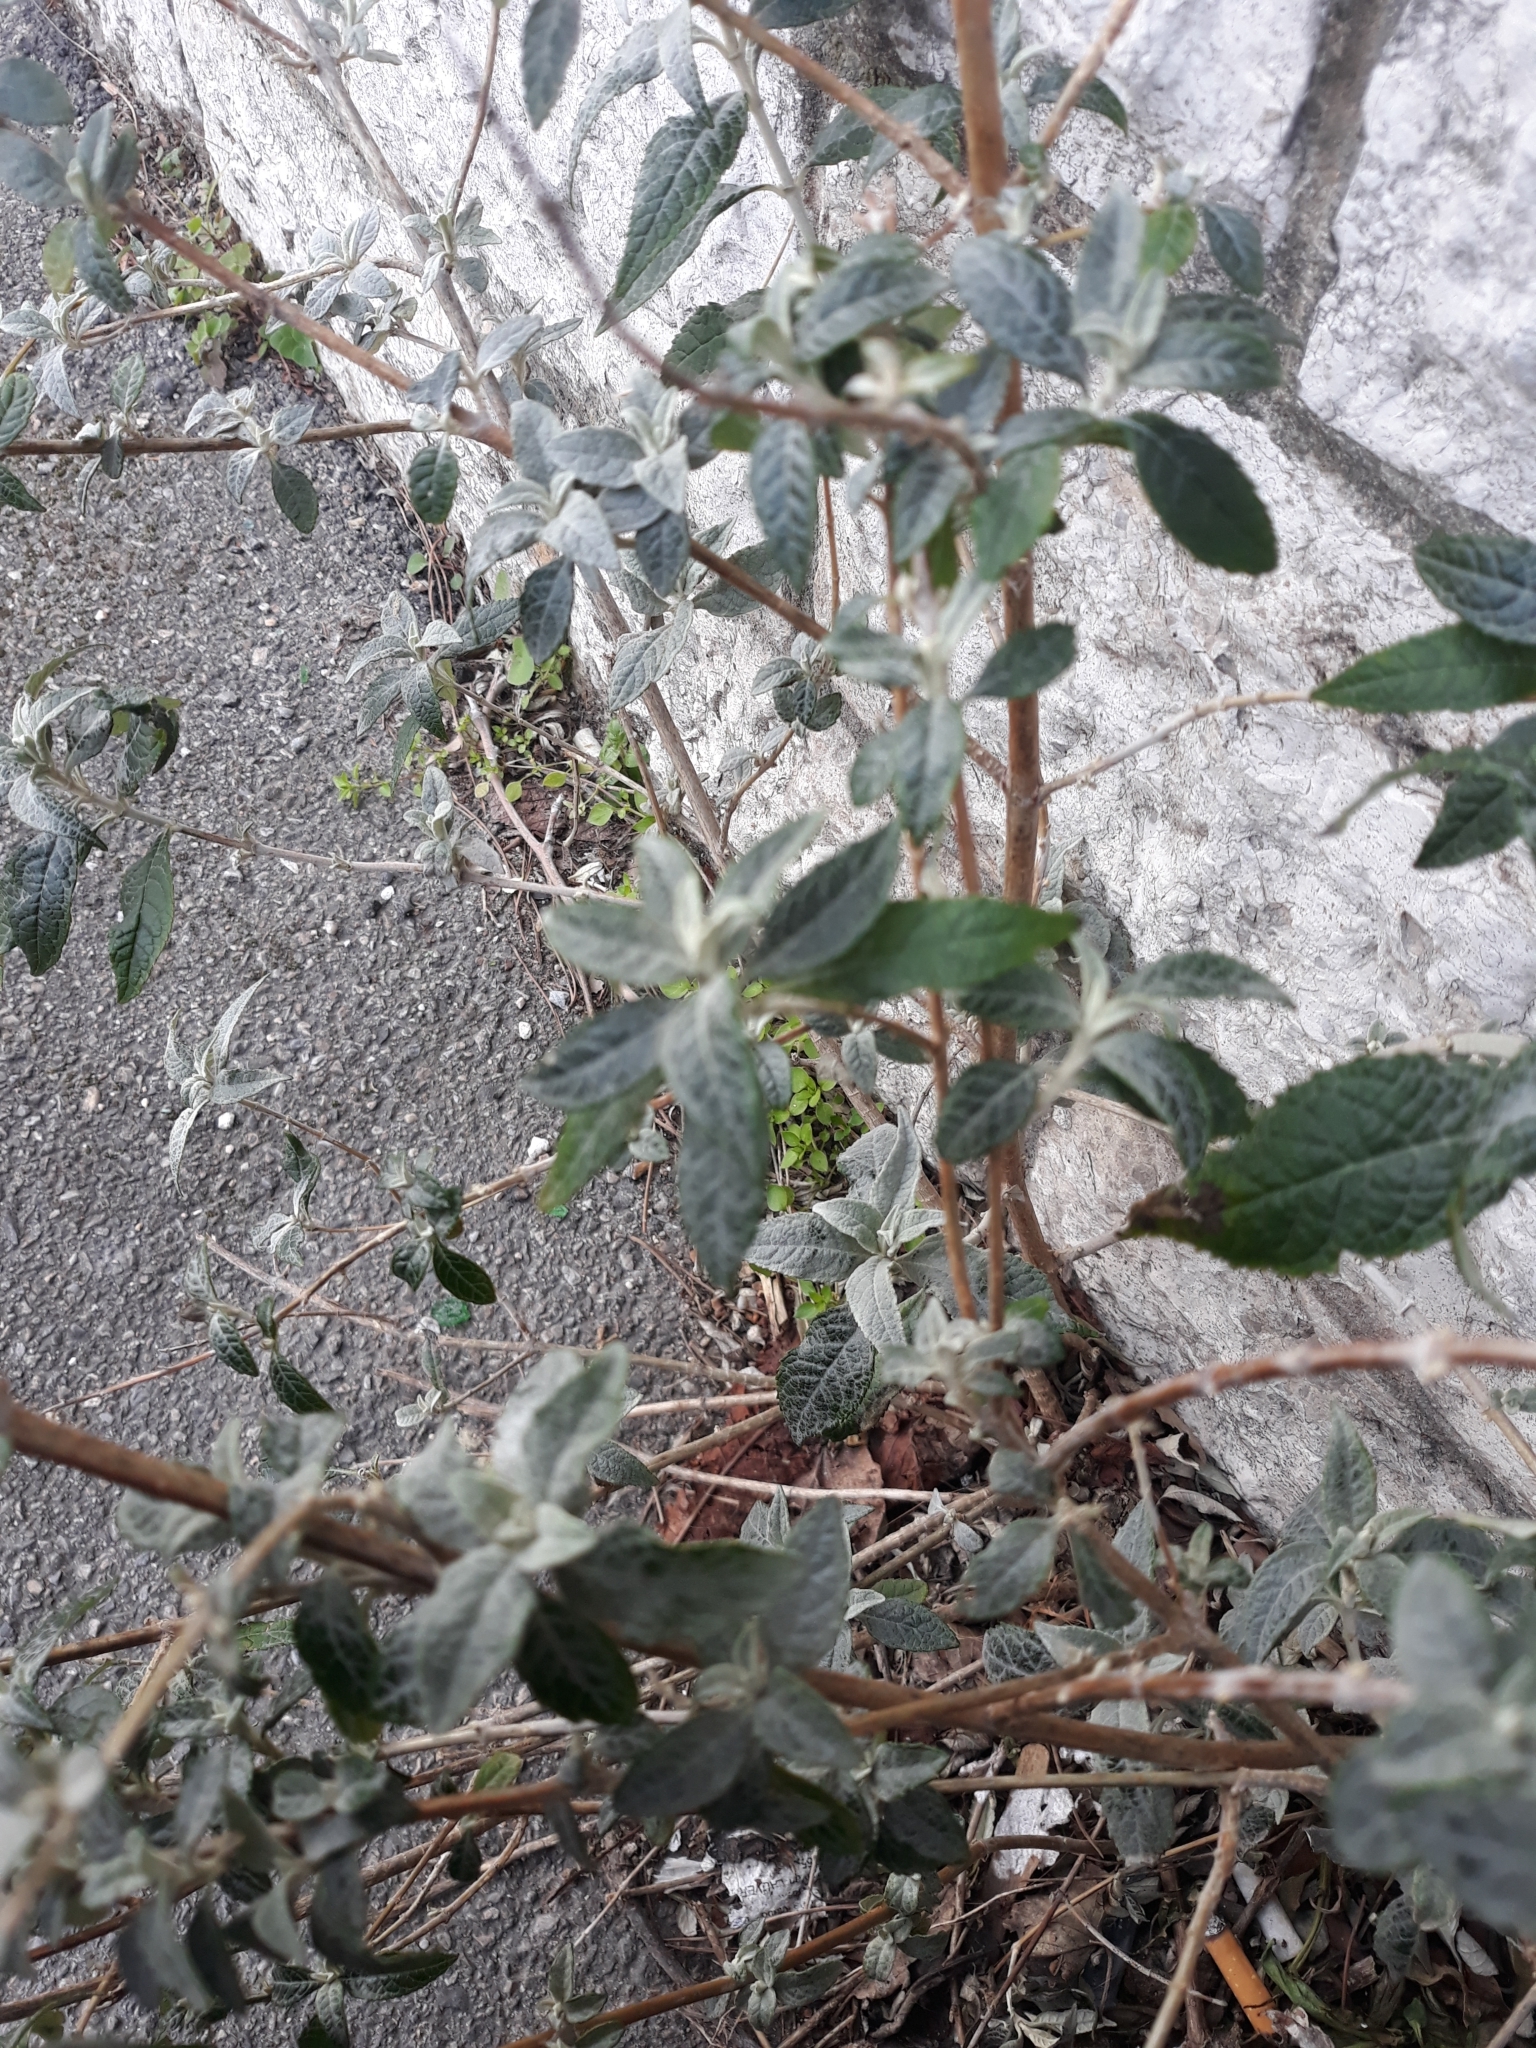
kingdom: Plantae
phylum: Tracheophyta
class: Magnoliopsida
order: Lamiales
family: Scrophulariaceae
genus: Buddleja
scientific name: Buddleja davidii
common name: Butterfly-bush
